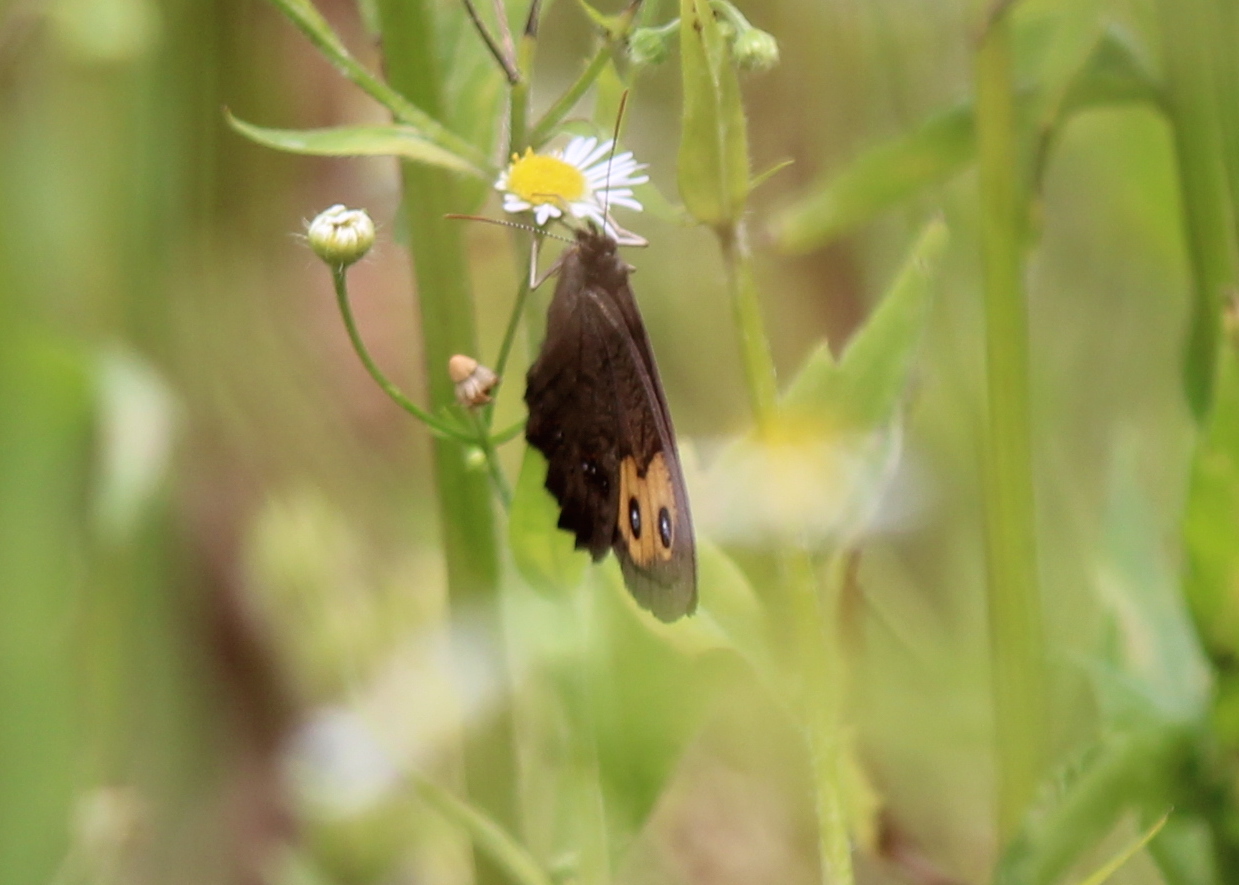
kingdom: Animalia
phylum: Arthropoda
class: Insecta
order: Lepidoptera
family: Nymphalidae
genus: Cercyonis
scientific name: Cercyonis pegala
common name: Common wood-nymph
